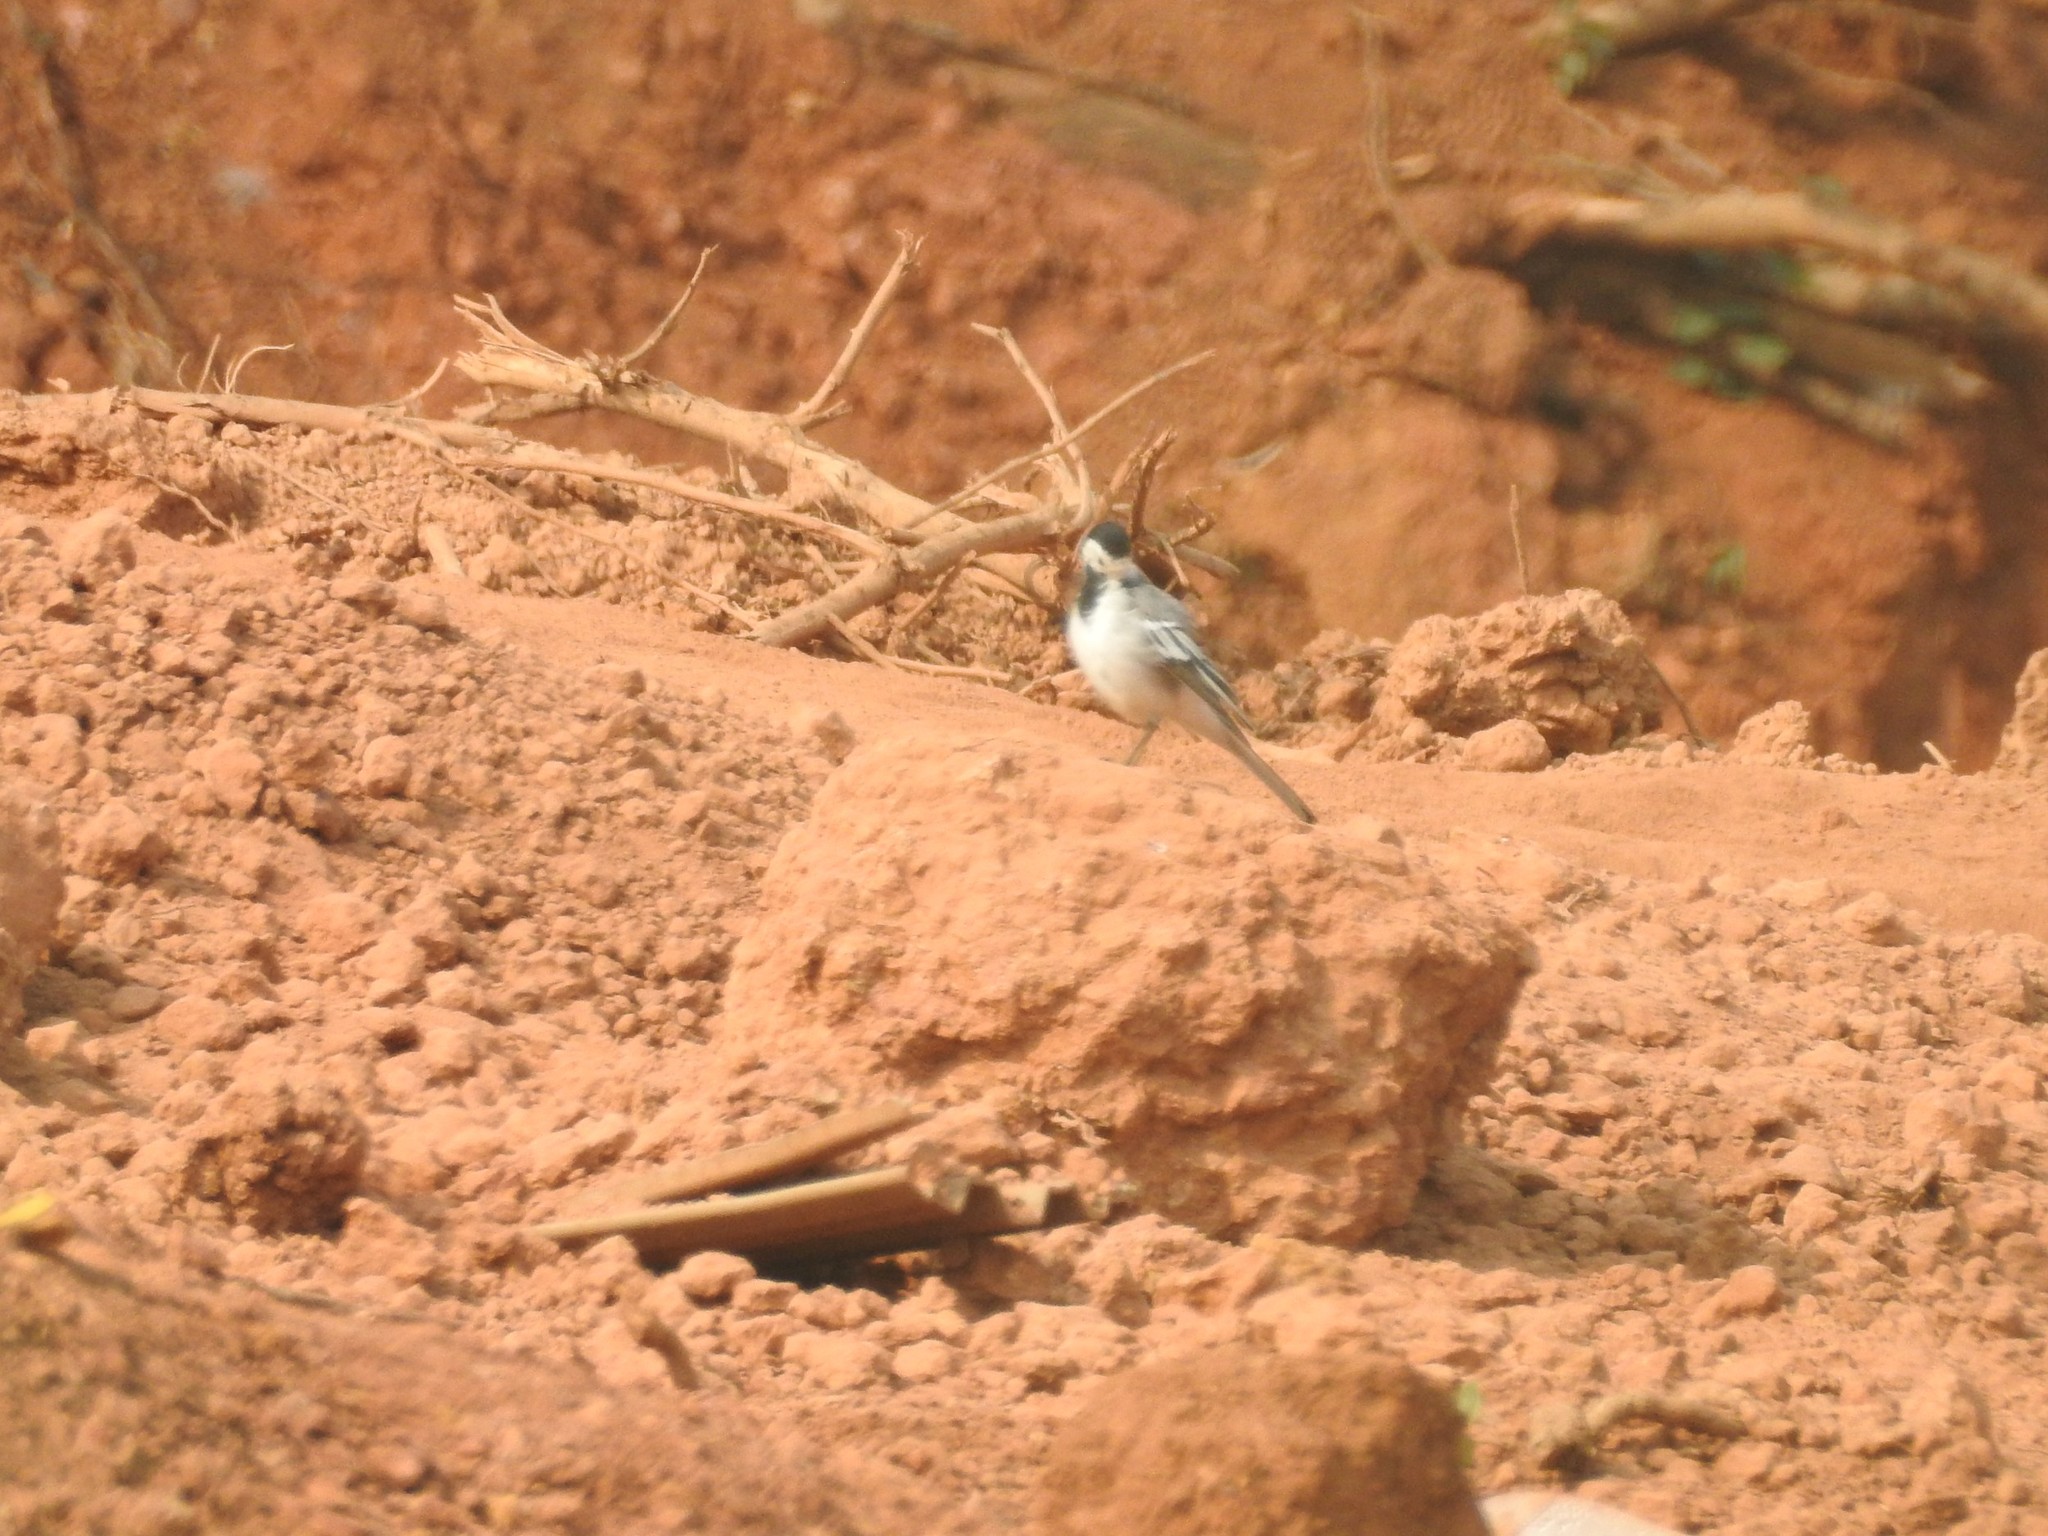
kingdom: Animalia
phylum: Chordata
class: Aves
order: Passeriformes
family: Motacillidae
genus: Motacilla
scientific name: Motacilla alba
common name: White wagtail
